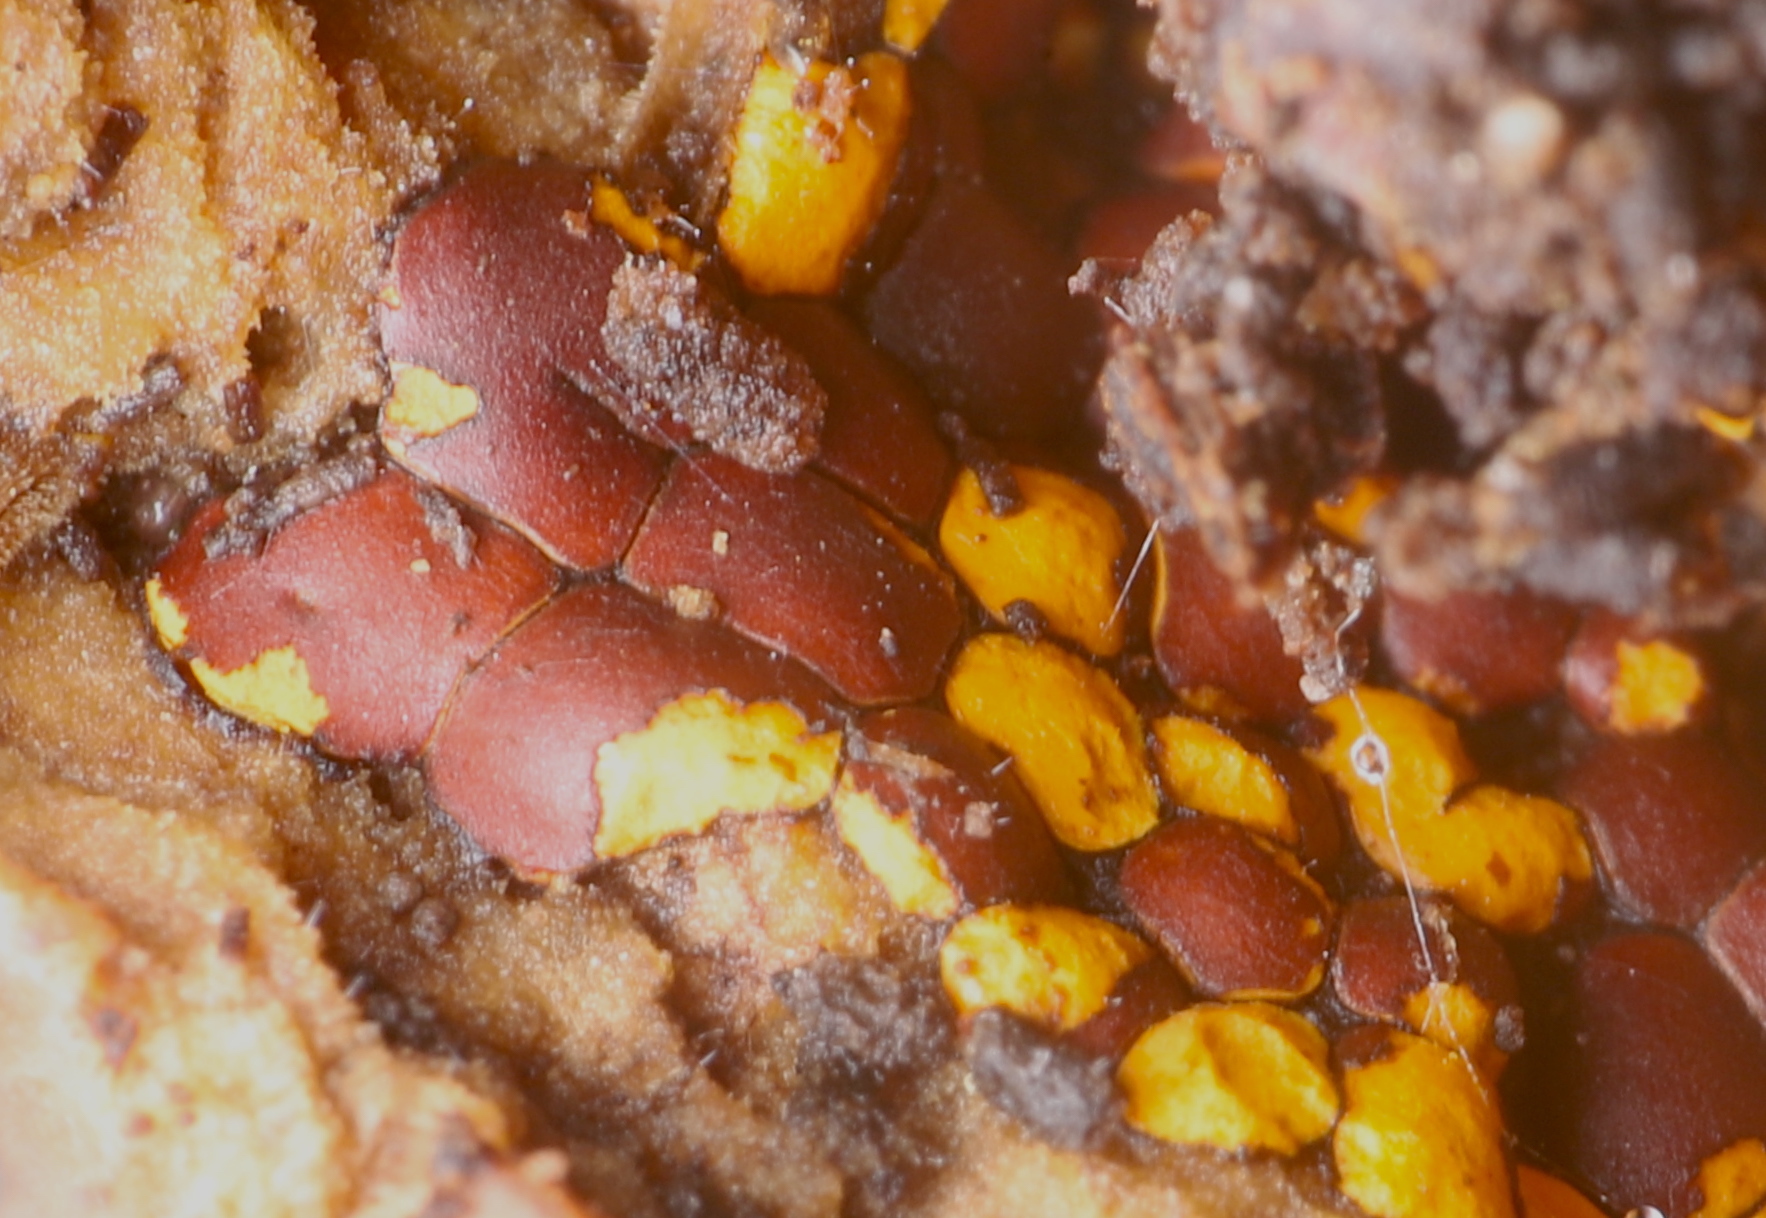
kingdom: Protozoa
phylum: Mycetozoa
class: Myxomycetes
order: Trichiales
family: Trichiaceae
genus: Perichaena
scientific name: Perichaena depressa
